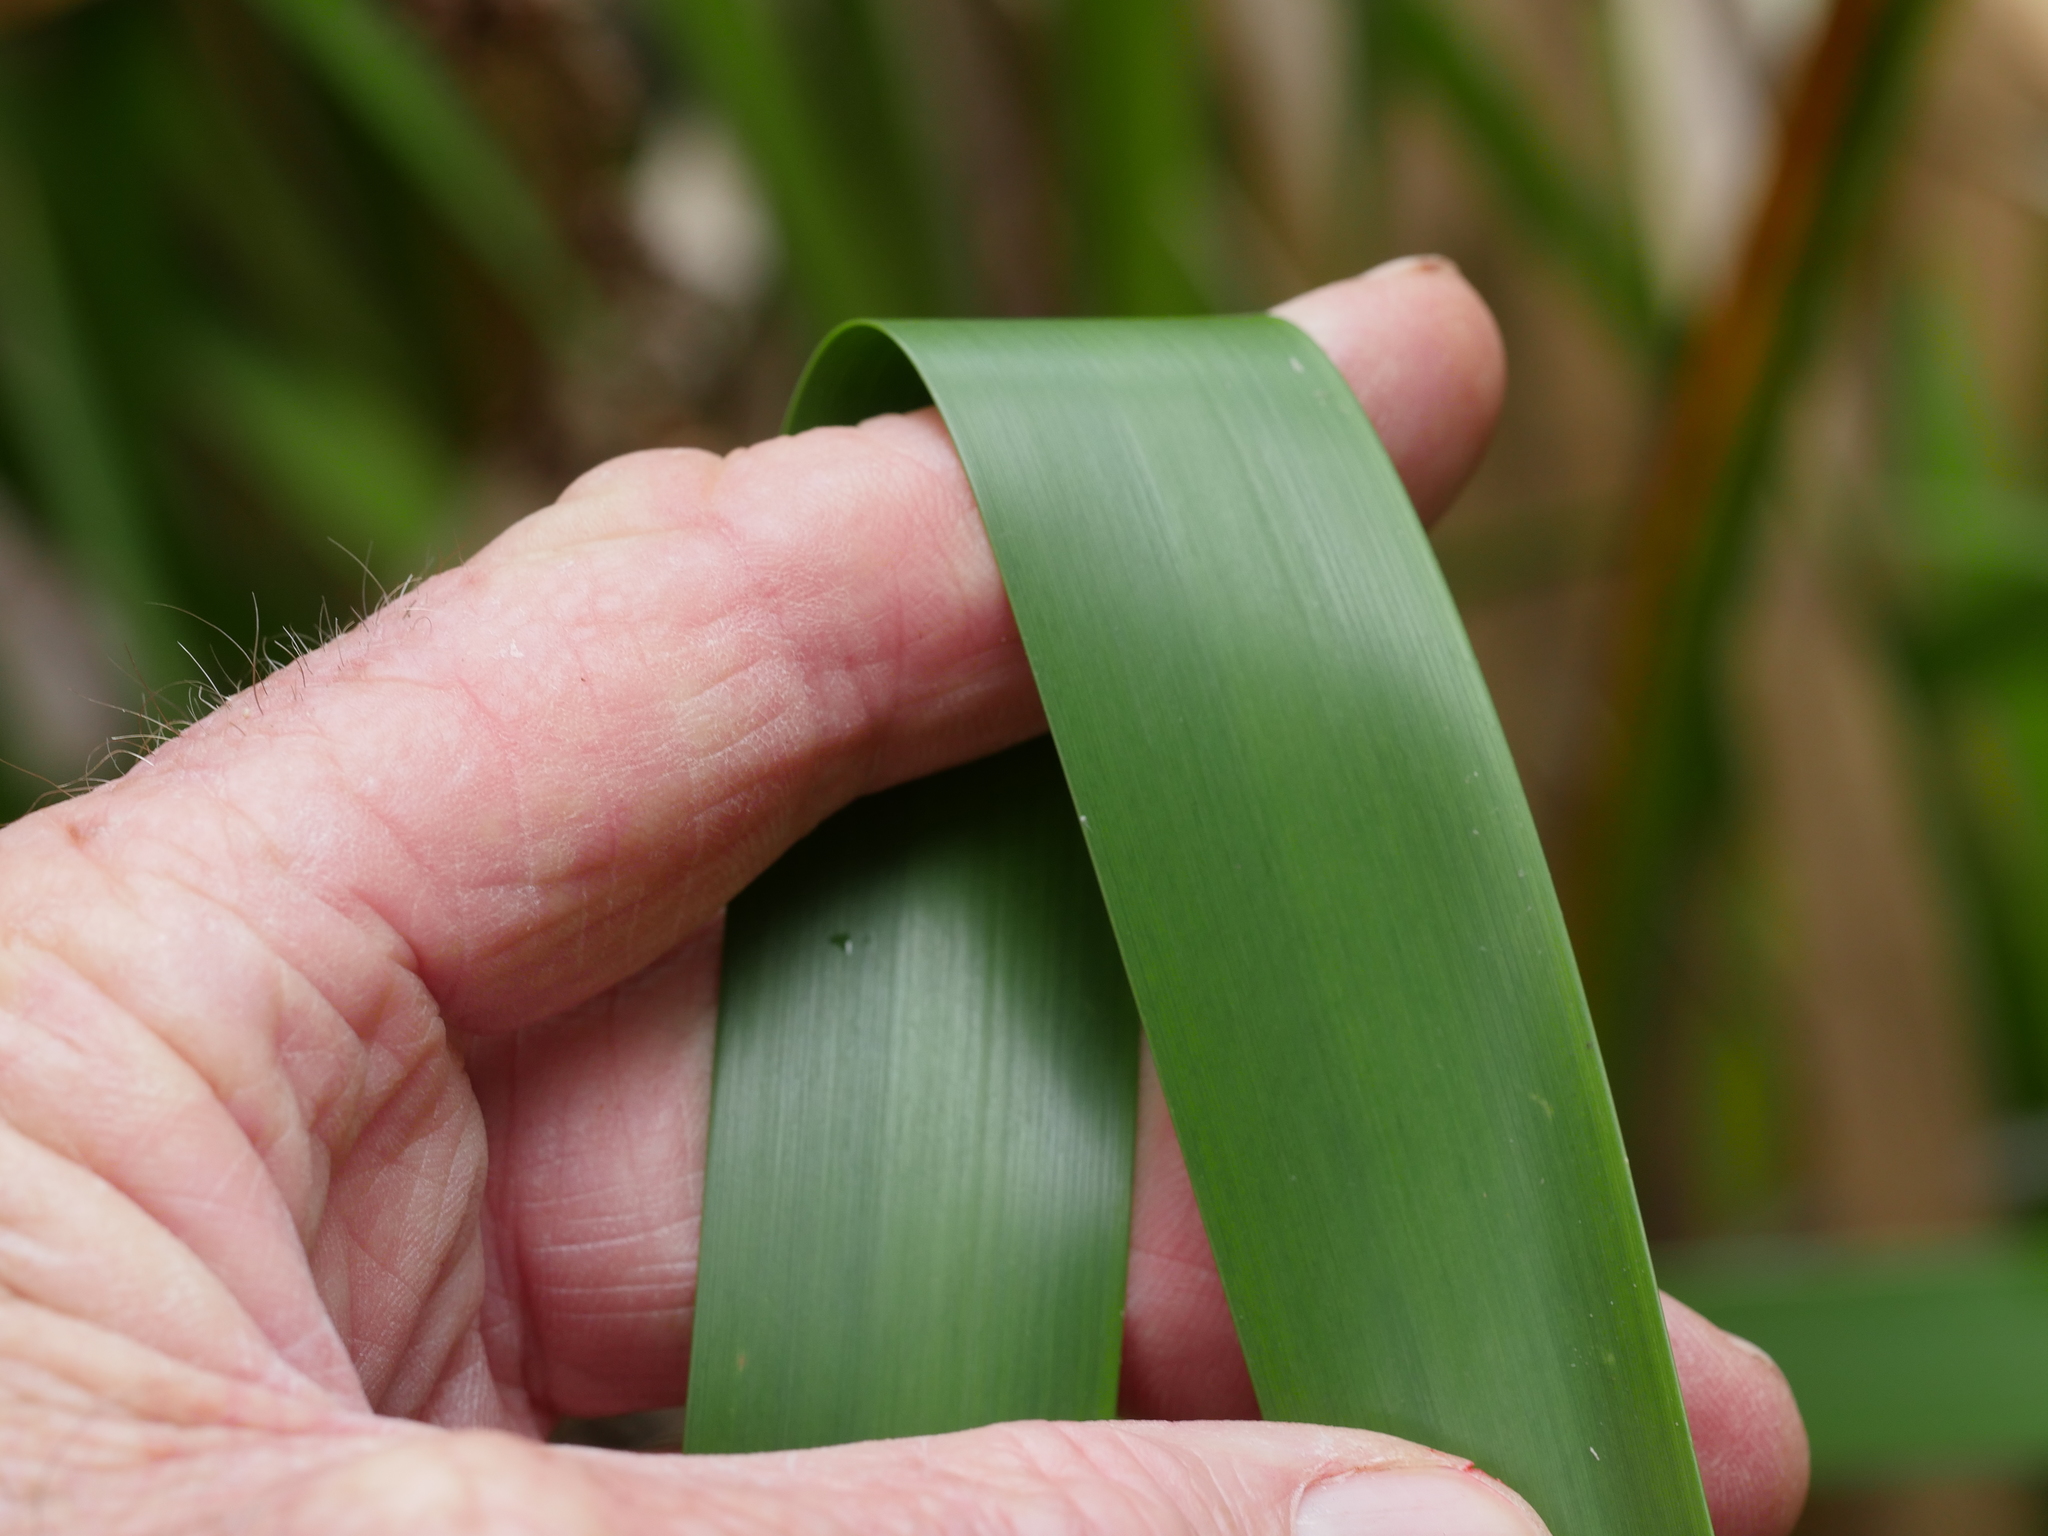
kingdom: Plantae
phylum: Tracheophyta
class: Liliopsida
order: Poales
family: Cyperaceae
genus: Machaerina
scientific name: Machaerina sinclairii
